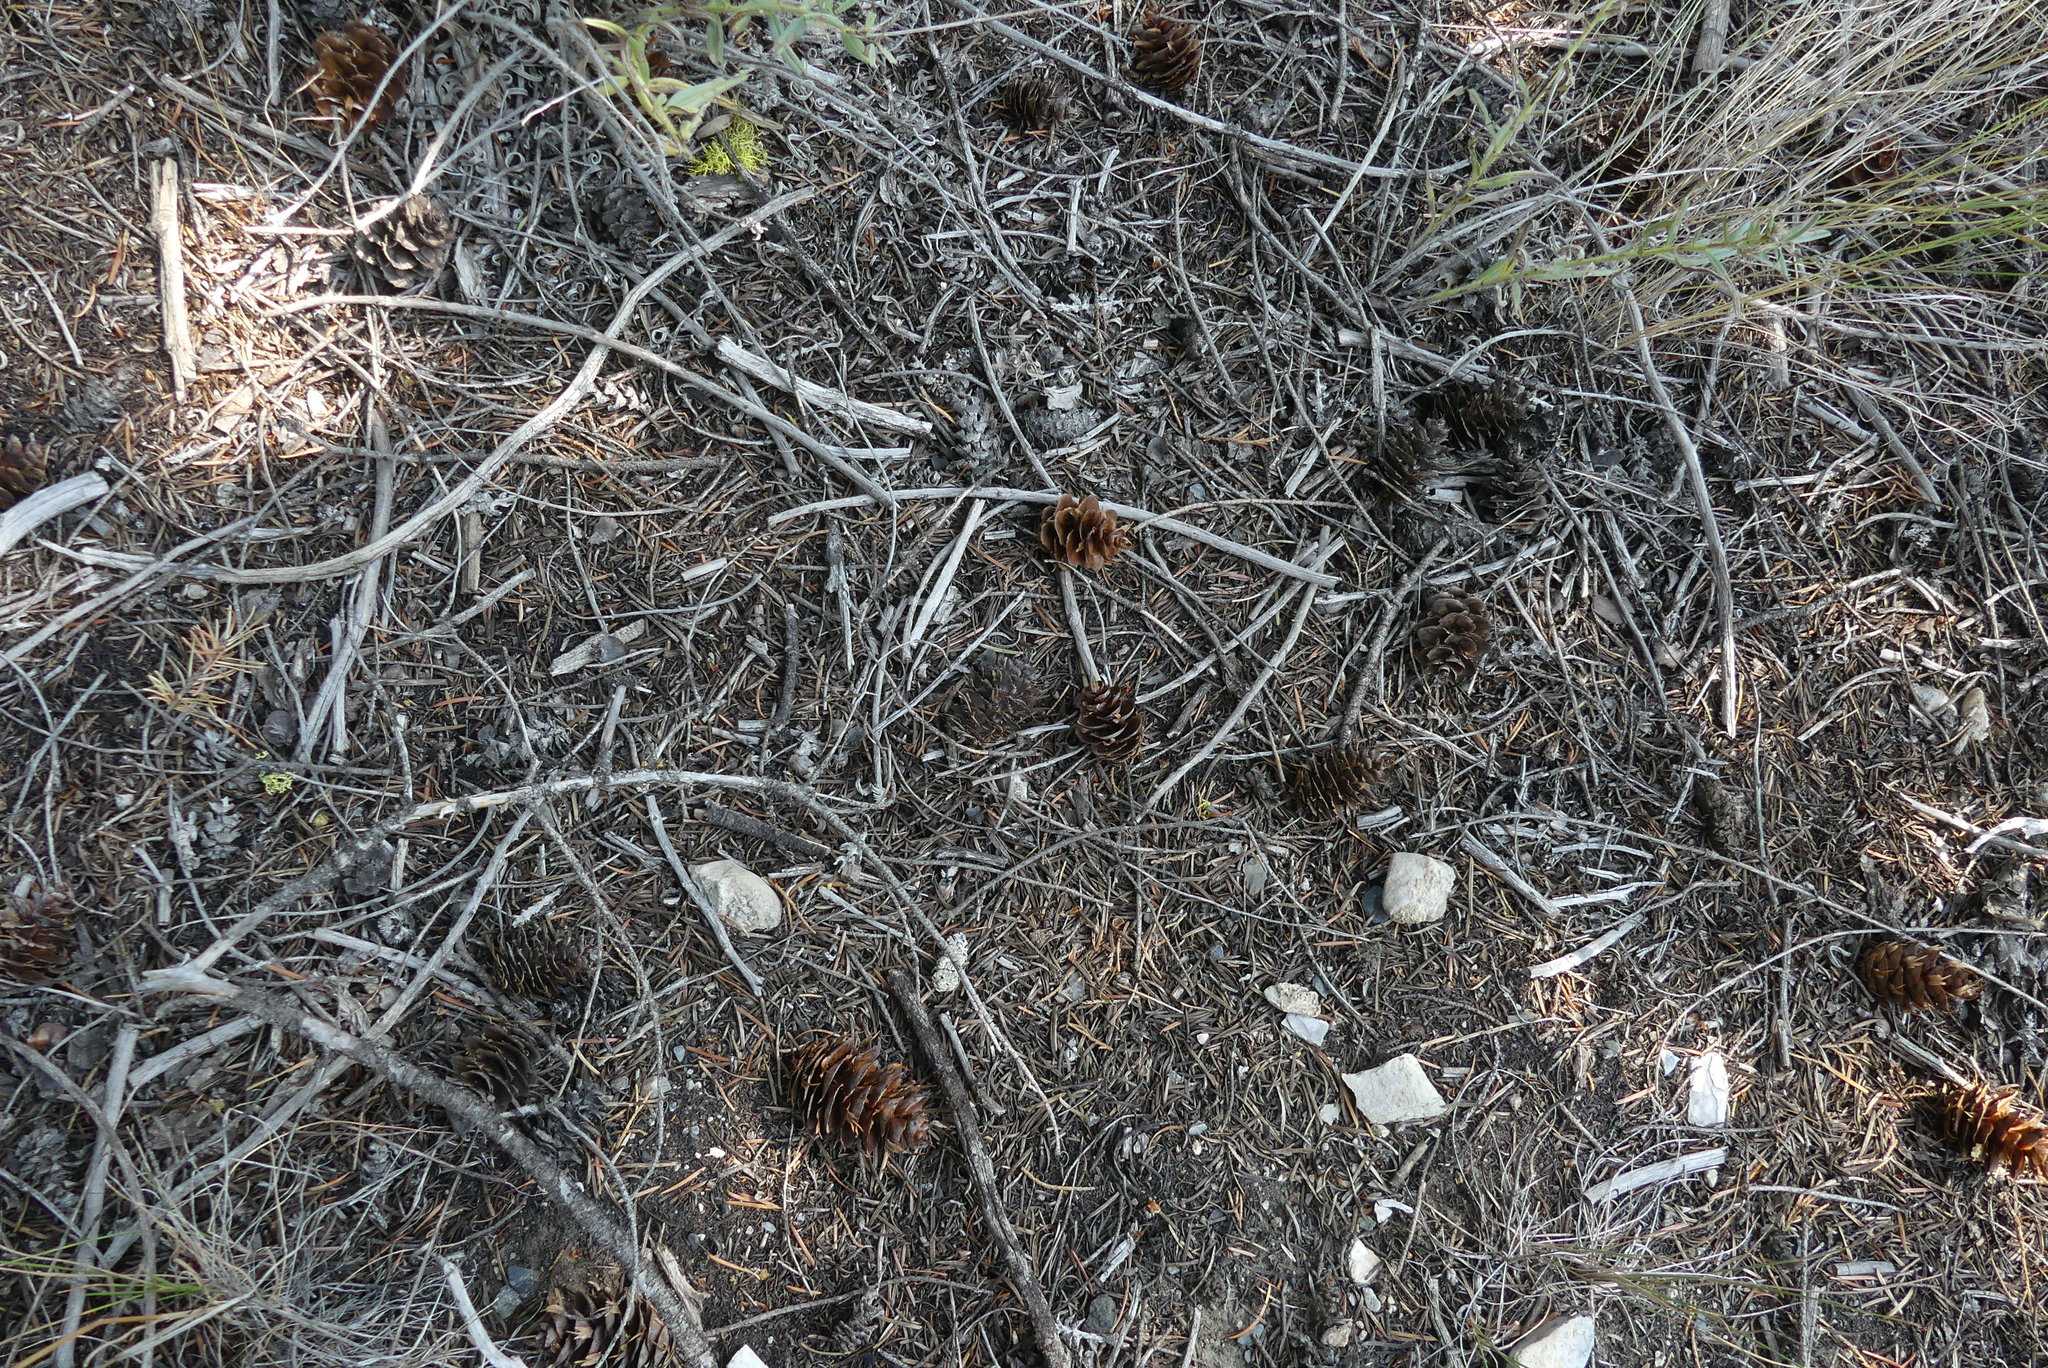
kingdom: Plantae
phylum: Tracheophyta
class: Pinopsida
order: Pinales
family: Pinaceae
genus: Pseudotsuga
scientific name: Pseudotsuga menziesii
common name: Douglas fir
